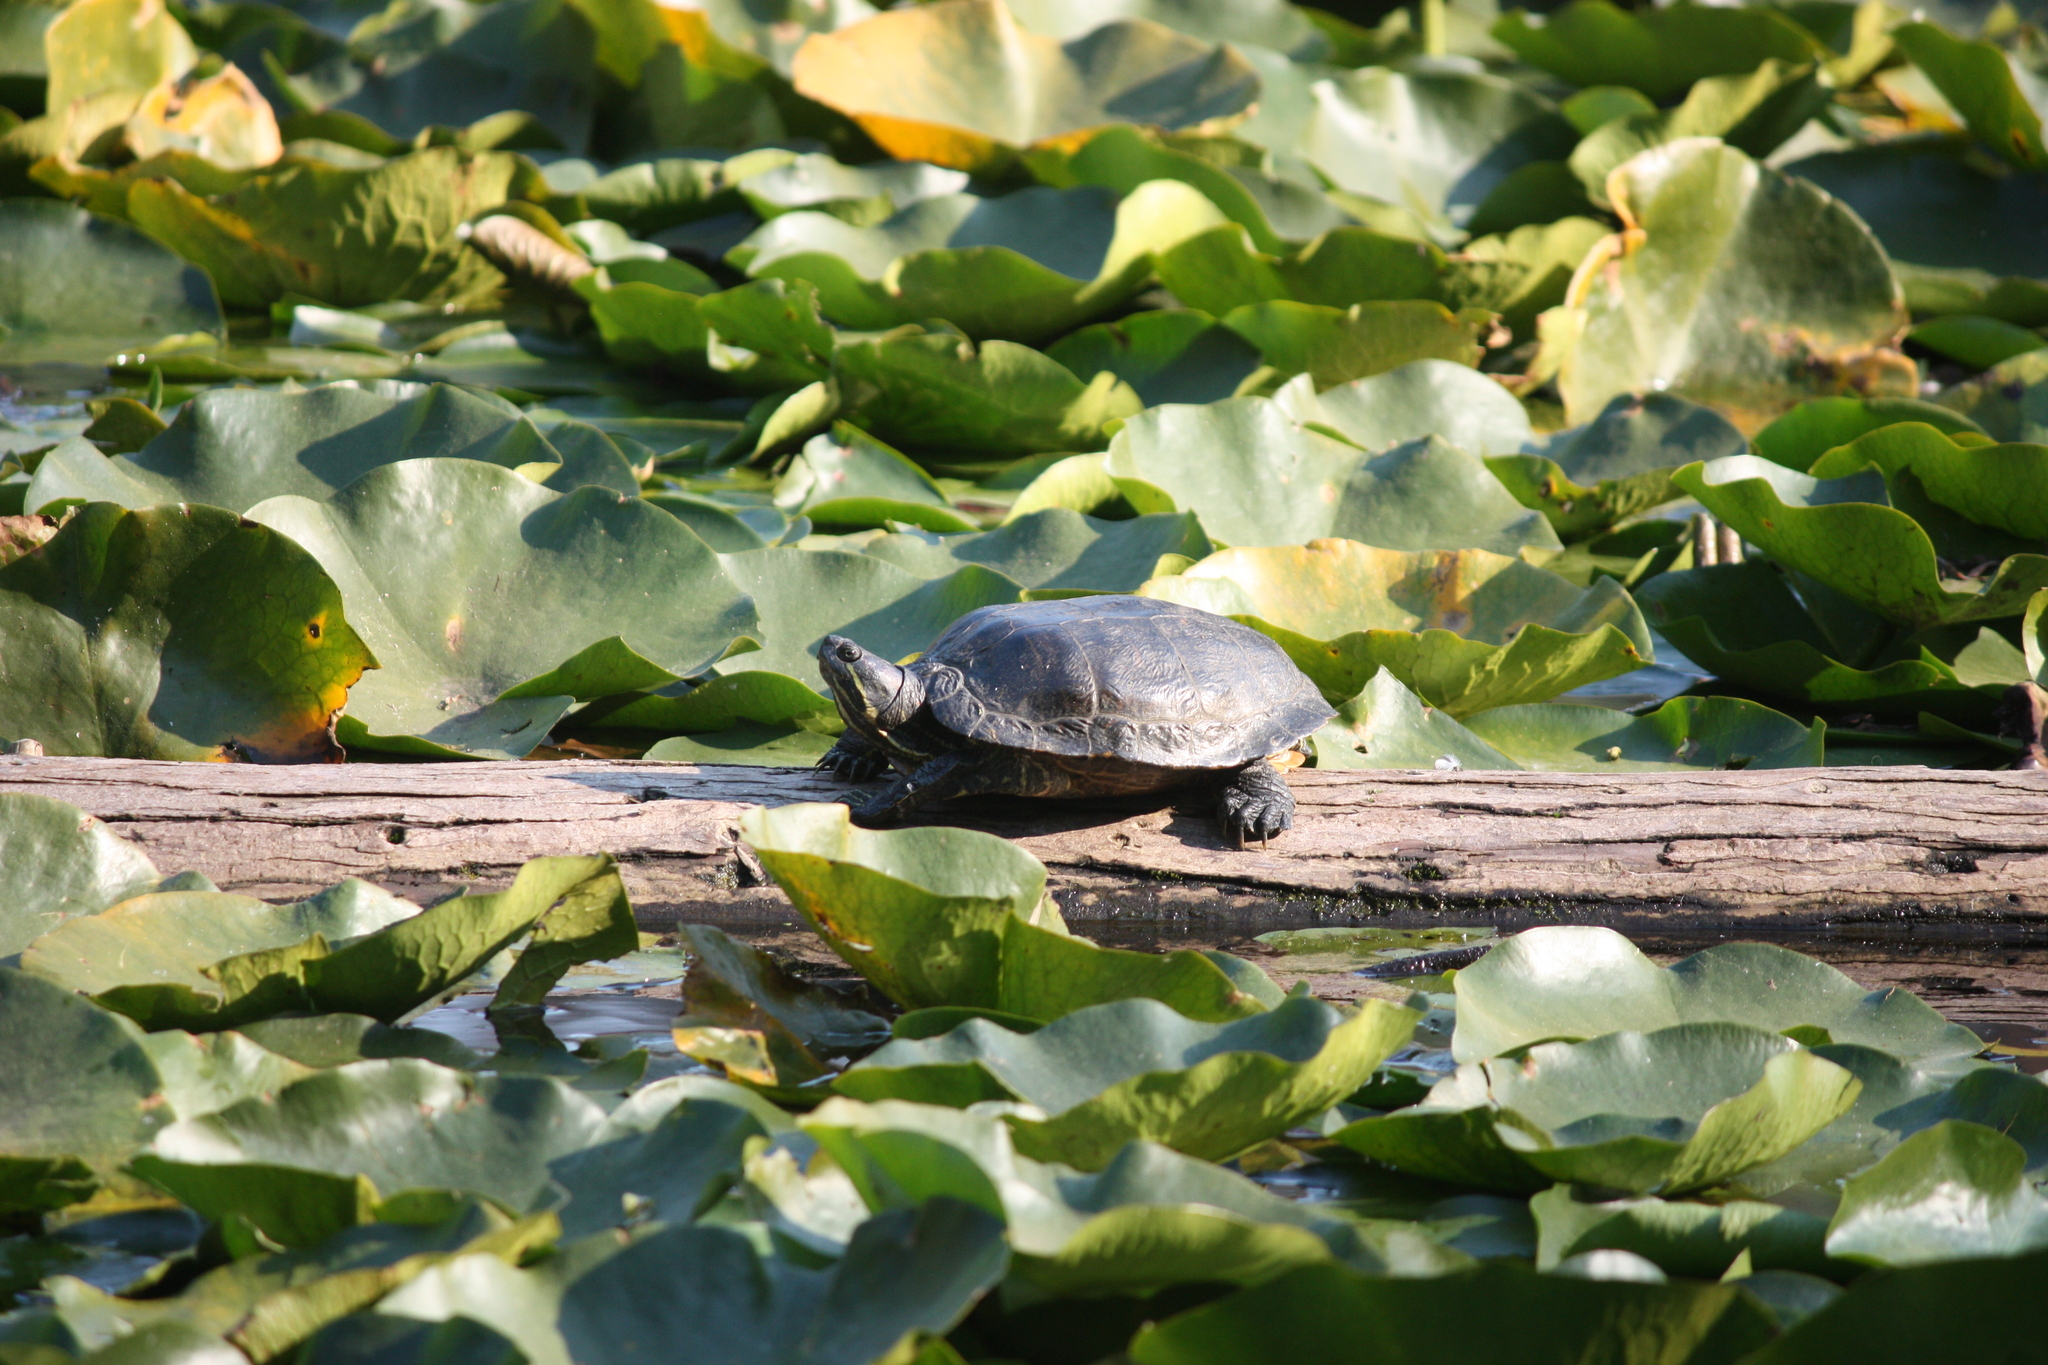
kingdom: Animalia
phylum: Chordata
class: Testudines
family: Emydidae
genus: Trachemys
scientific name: Trachemys scripta
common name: Slider
